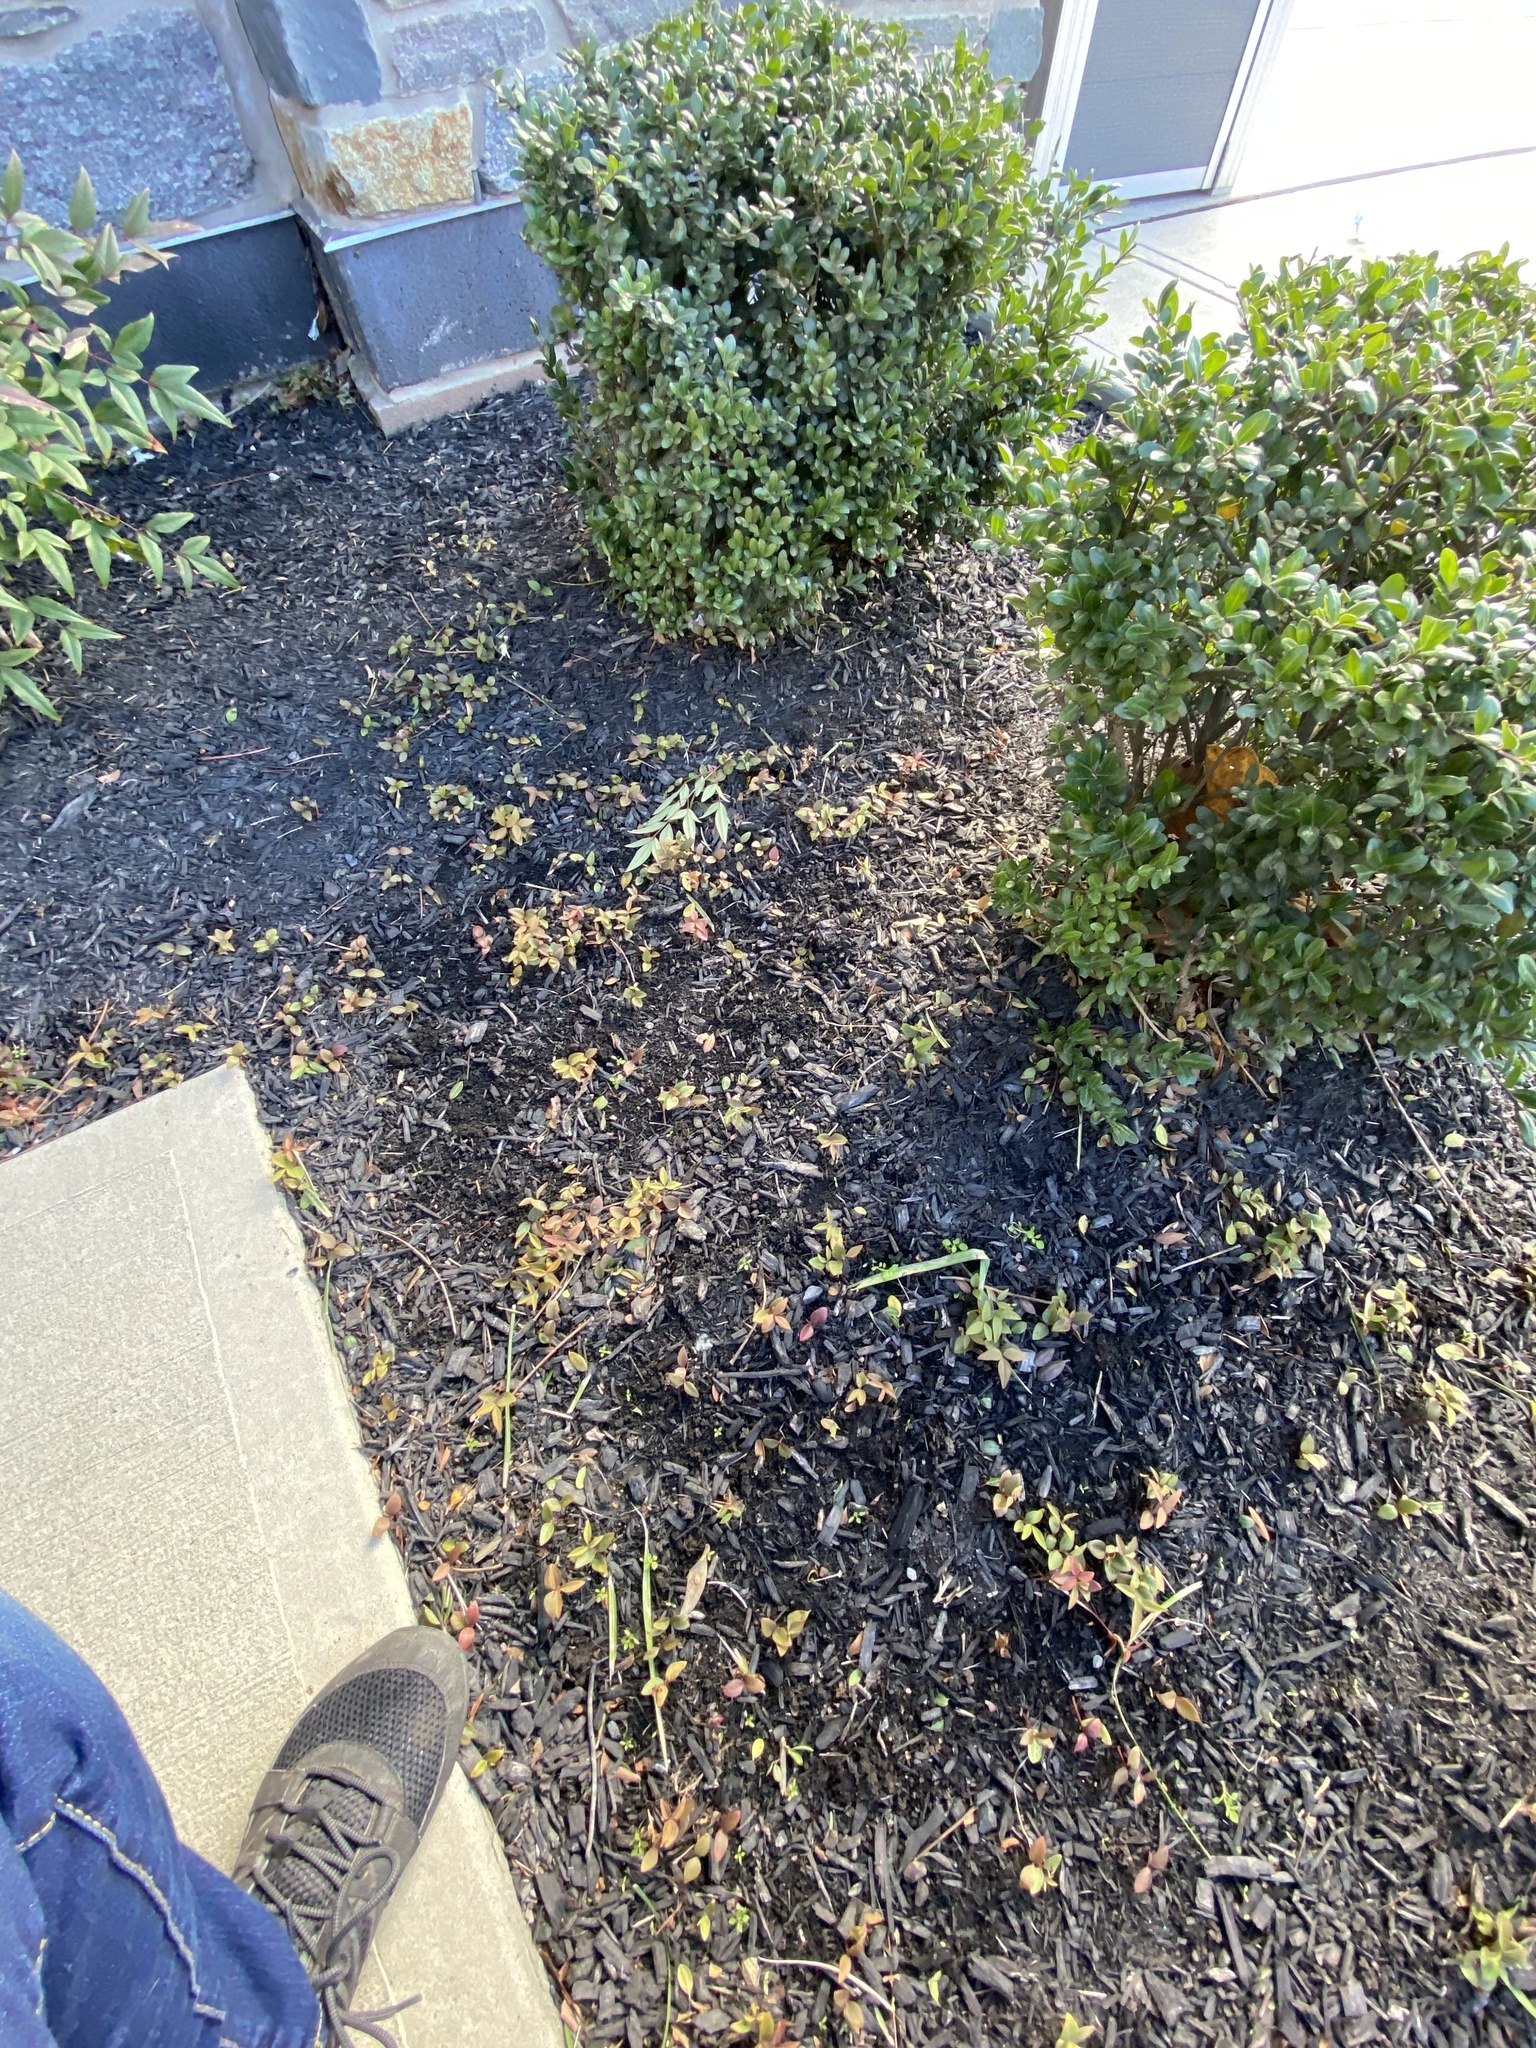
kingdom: Plantae
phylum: Tracheophyta
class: Magnoliopsida
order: Ranunculales
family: Berberidaceae
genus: Nandina
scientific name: Nandina domestica
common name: Sacred bamboo
